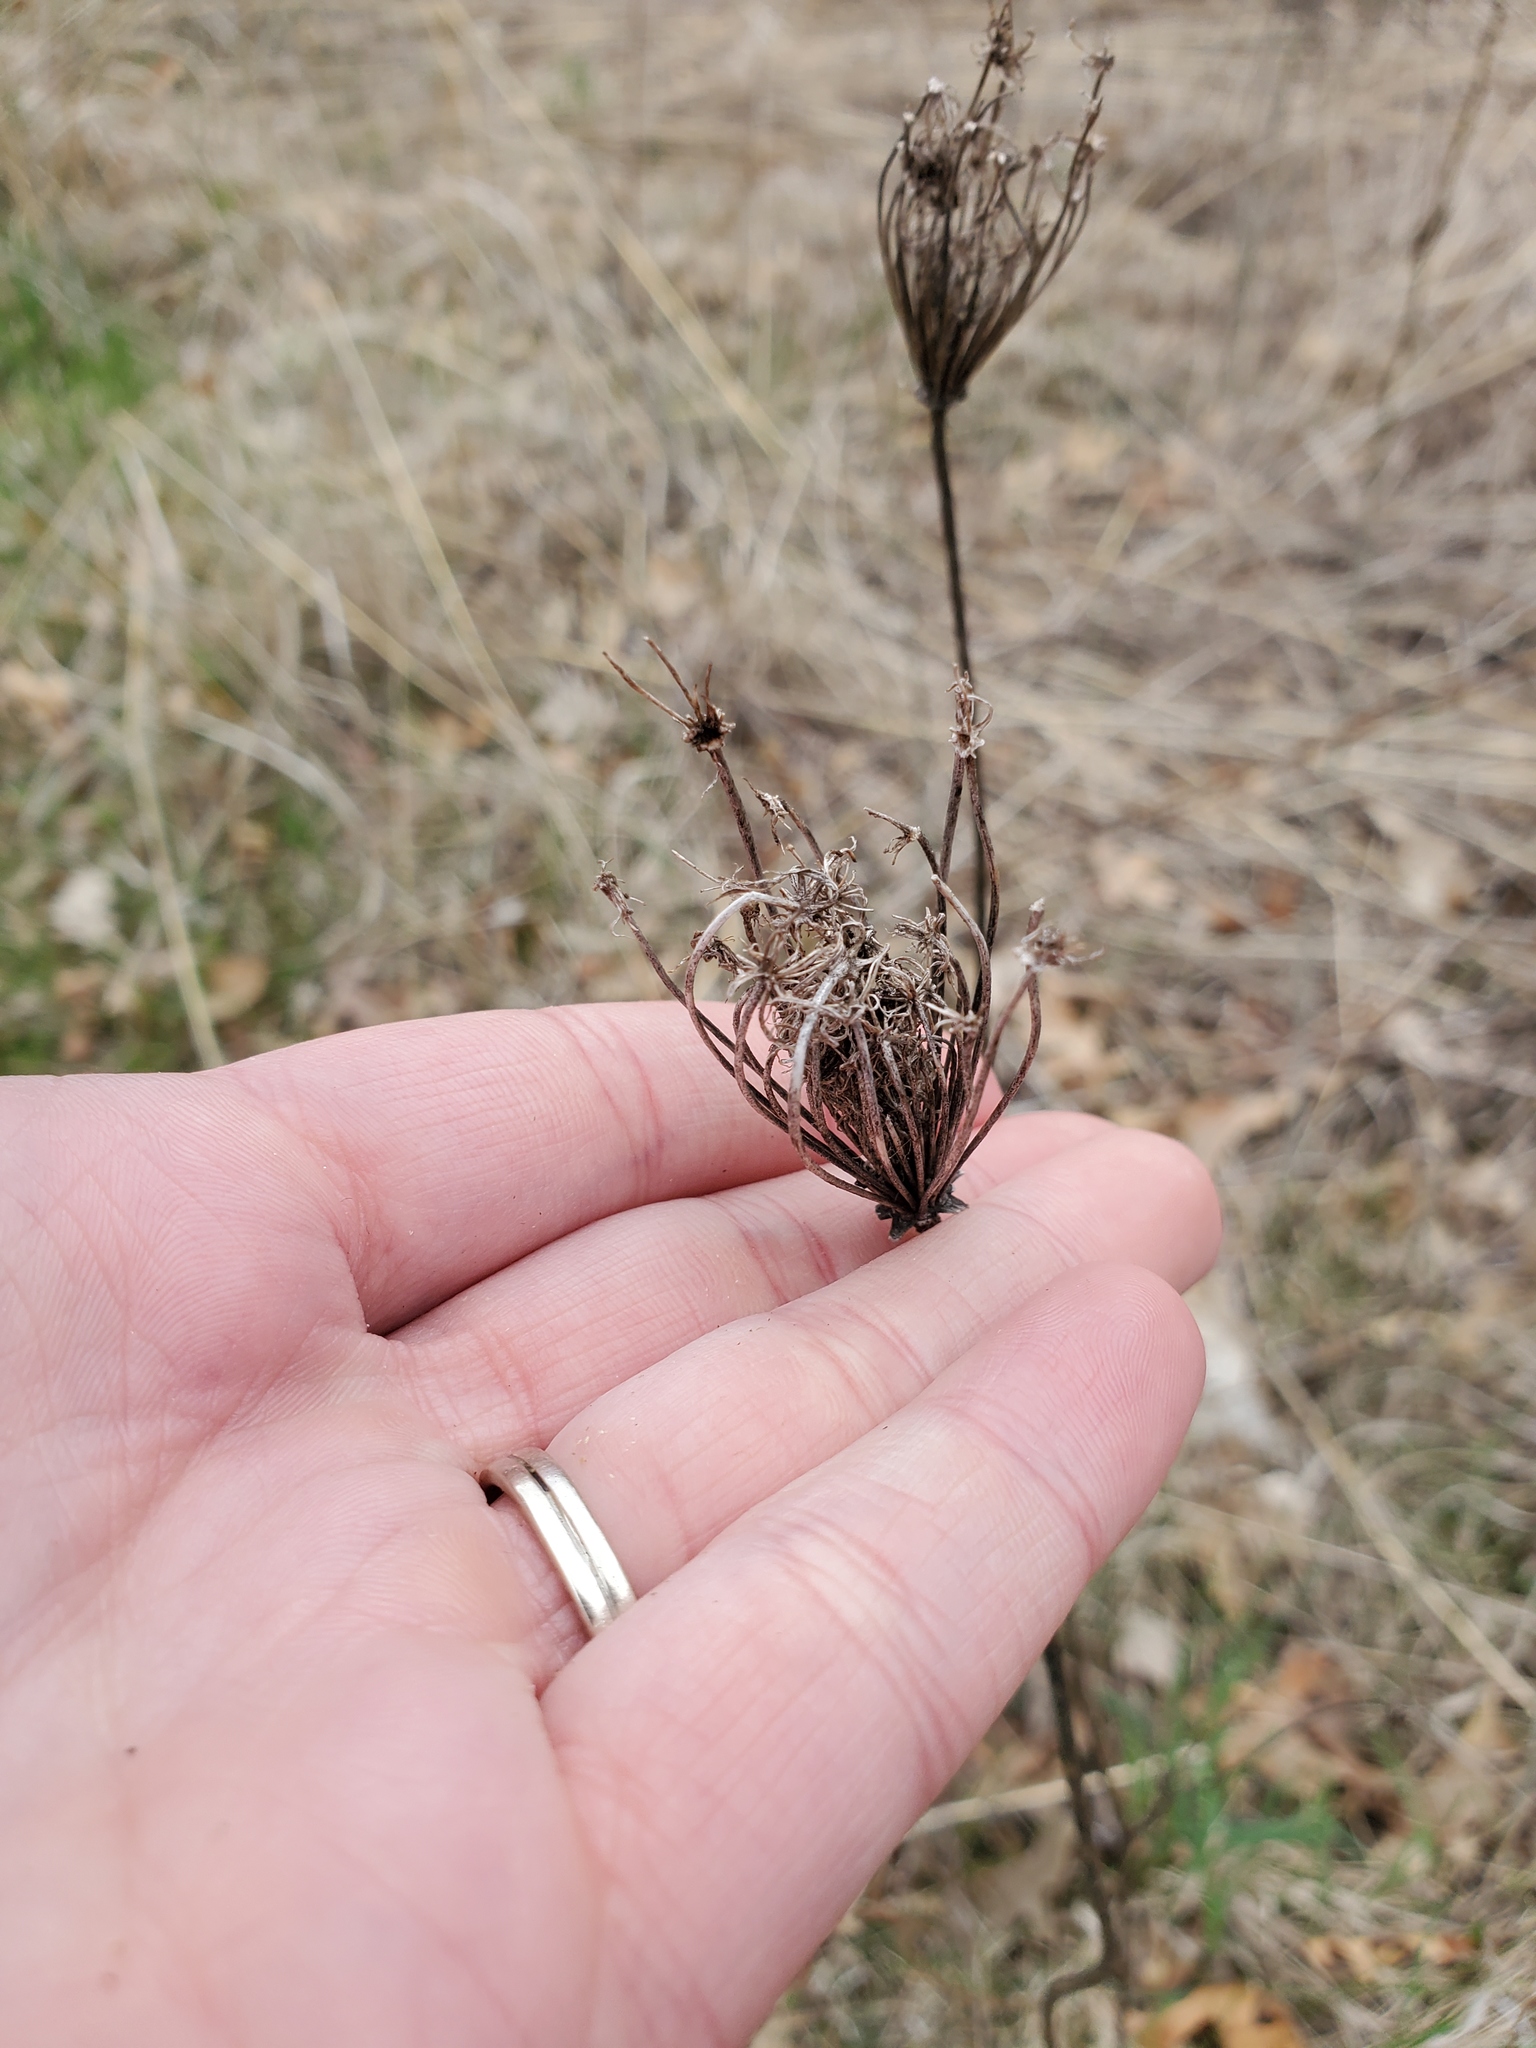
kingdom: Plantae
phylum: Tracheophyta
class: Magnoliopsida
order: Apiales
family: Apiaceae
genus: Daucus
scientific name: Daucus carota
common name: Wild carrot
